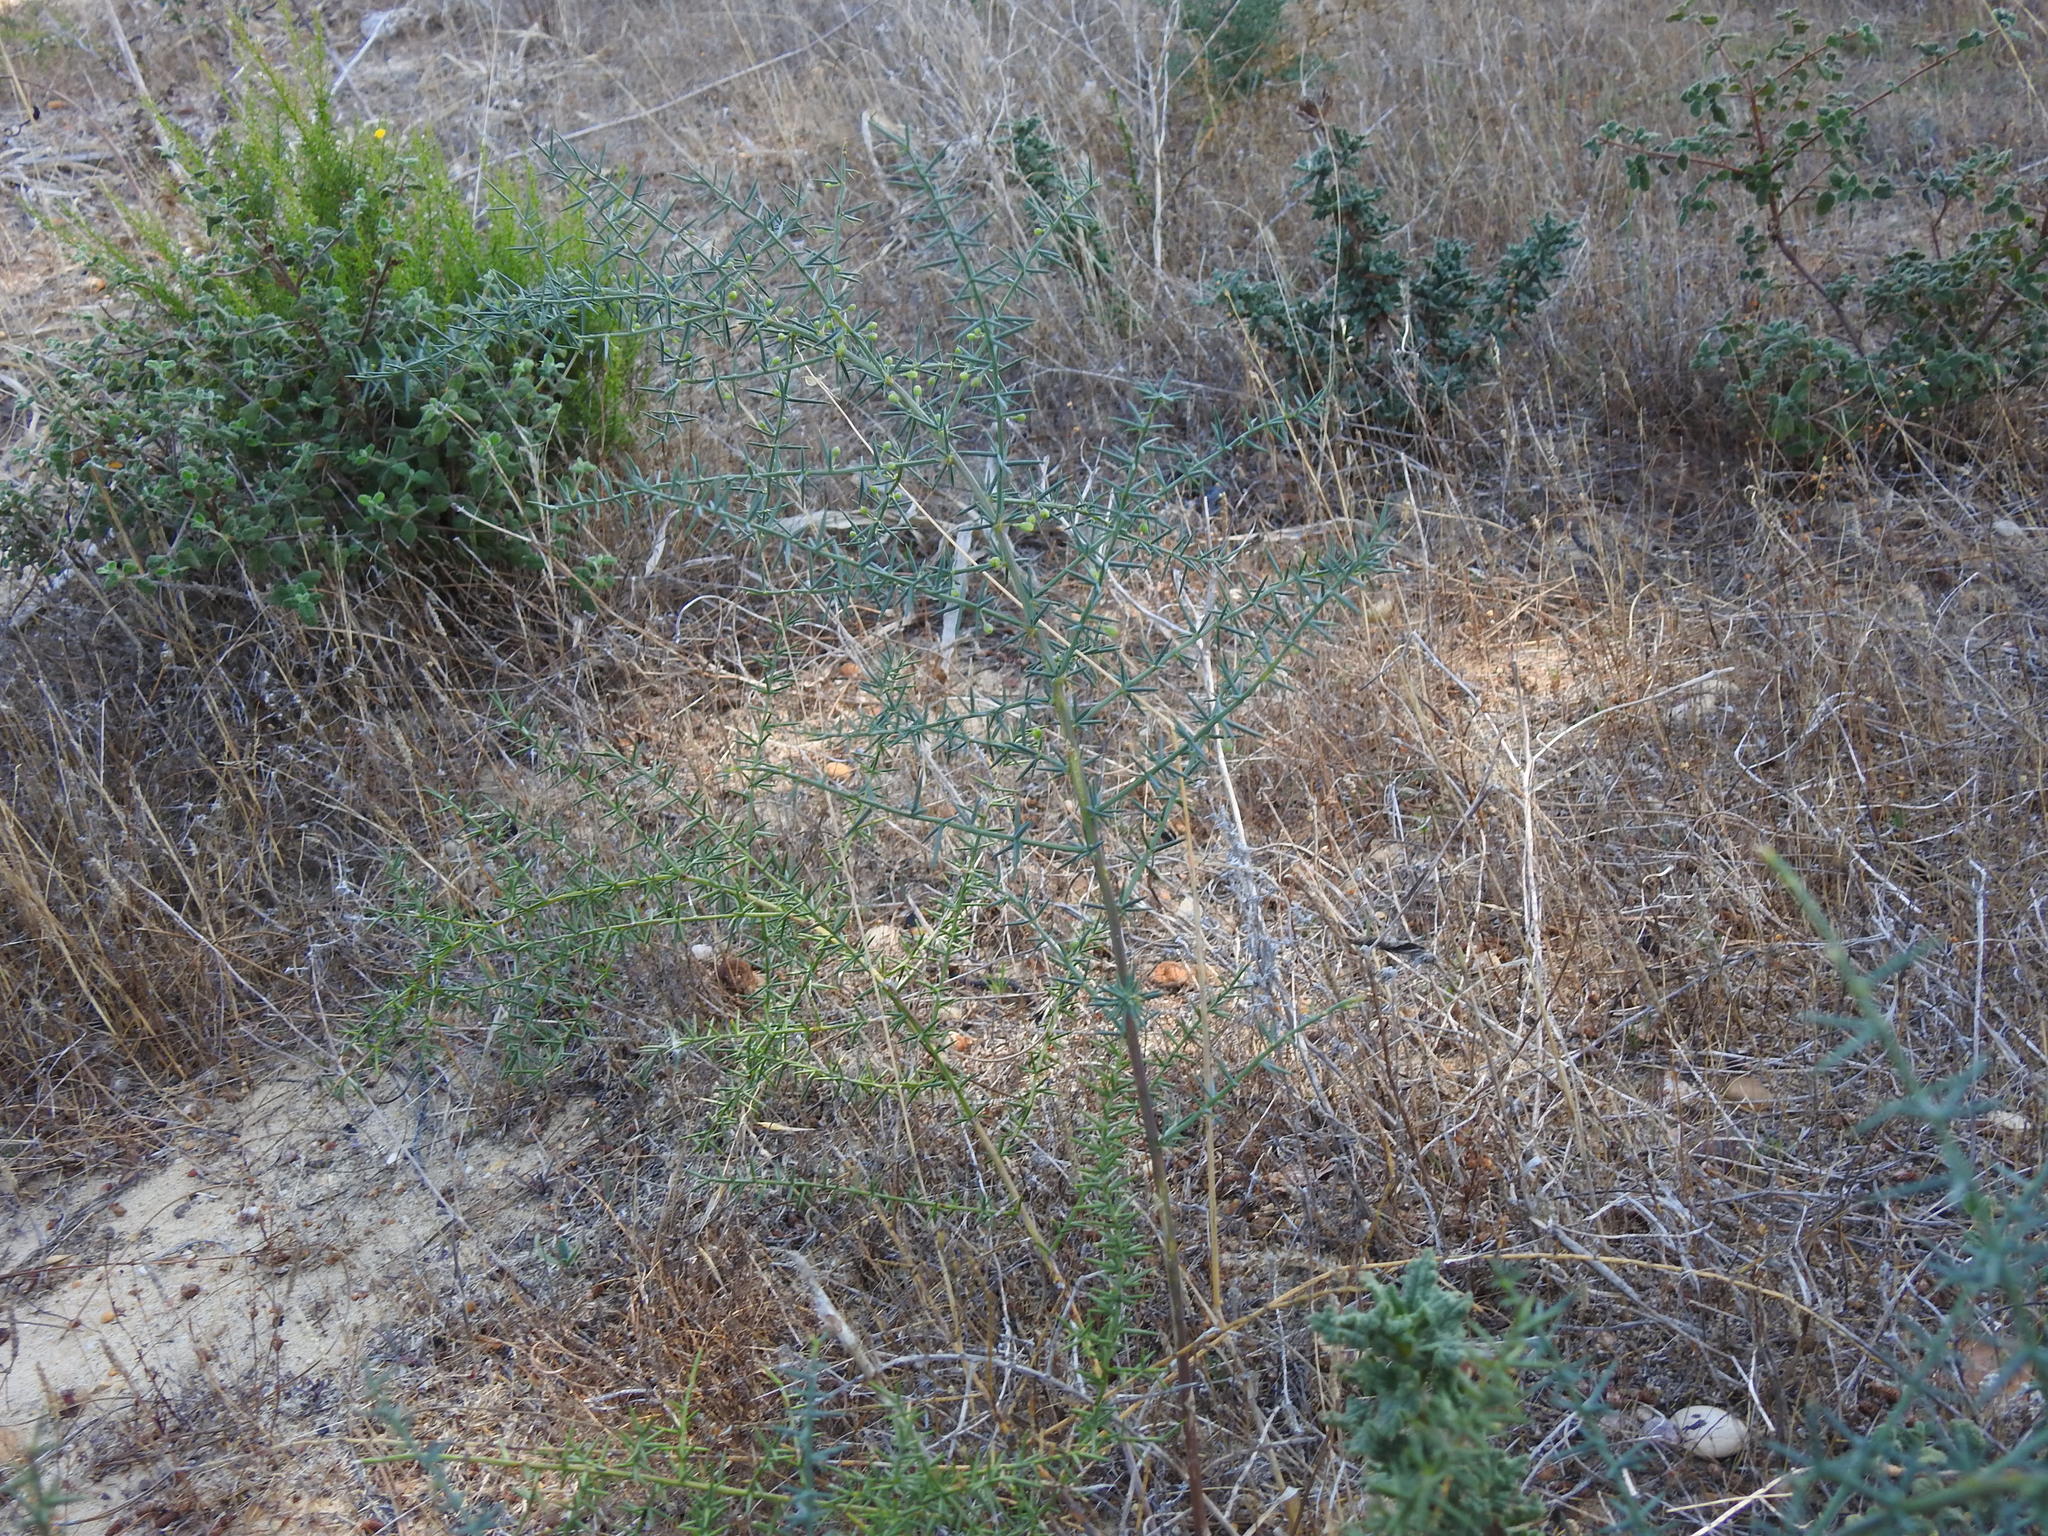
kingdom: Plantae
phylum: Tracheophyta
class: Liliopsida
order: Asparagales
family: Asparagaceae
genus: Asparagus
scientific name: Asparagus aphyllus
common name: Mediterranean asparagus
